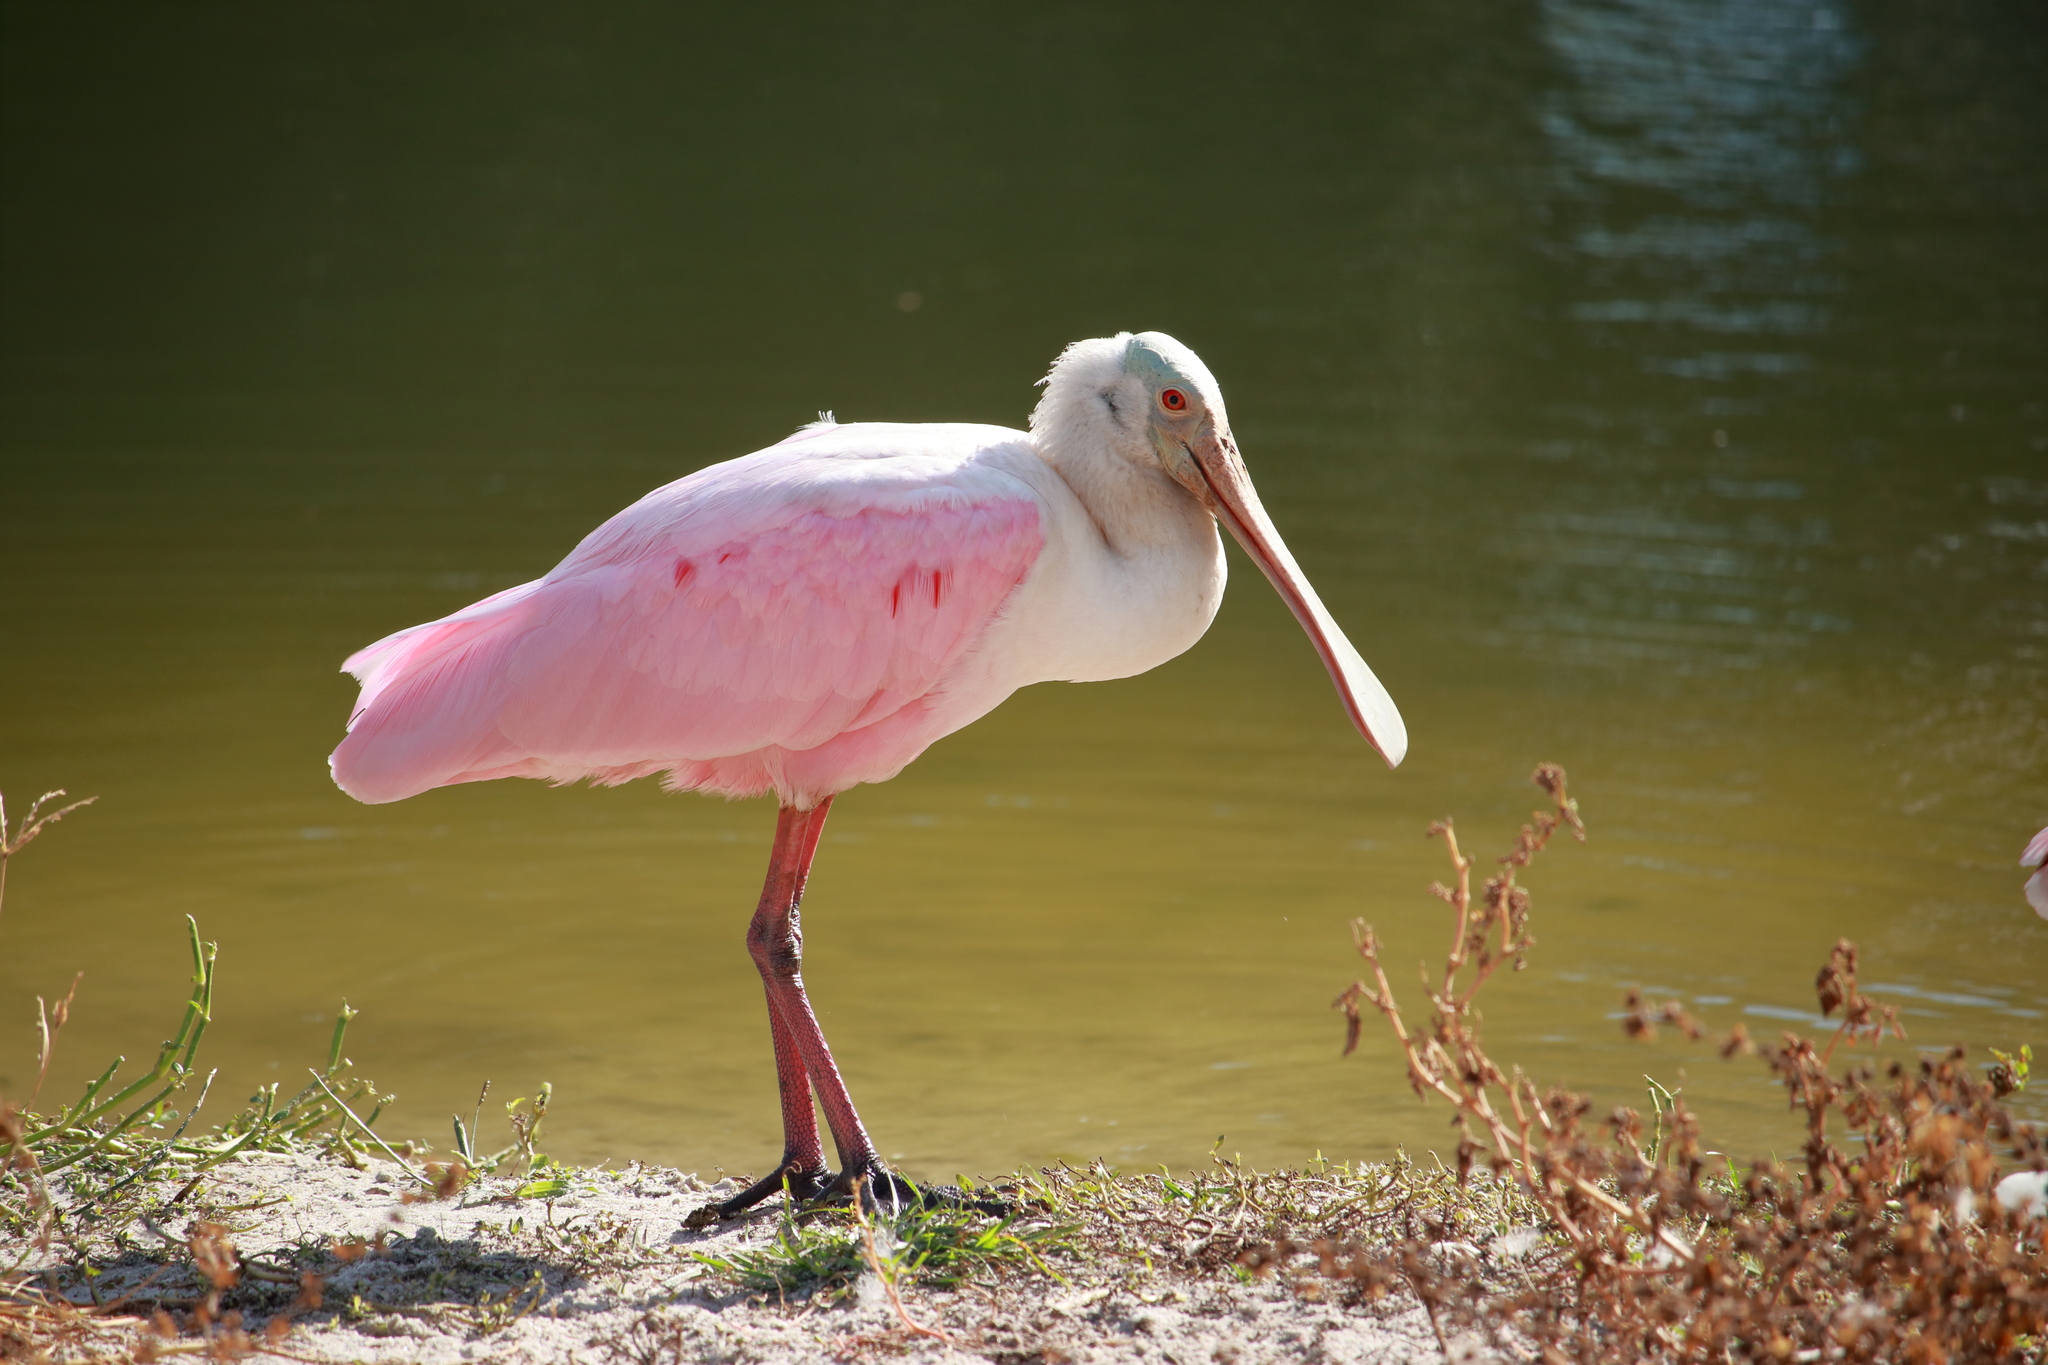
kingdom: Animalia
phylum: Chordata
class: Aves
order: Pelecaniformes
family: Threskiornithidae
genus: Platalea
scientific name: Platalea ajaja
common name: Roseate spoonbill
